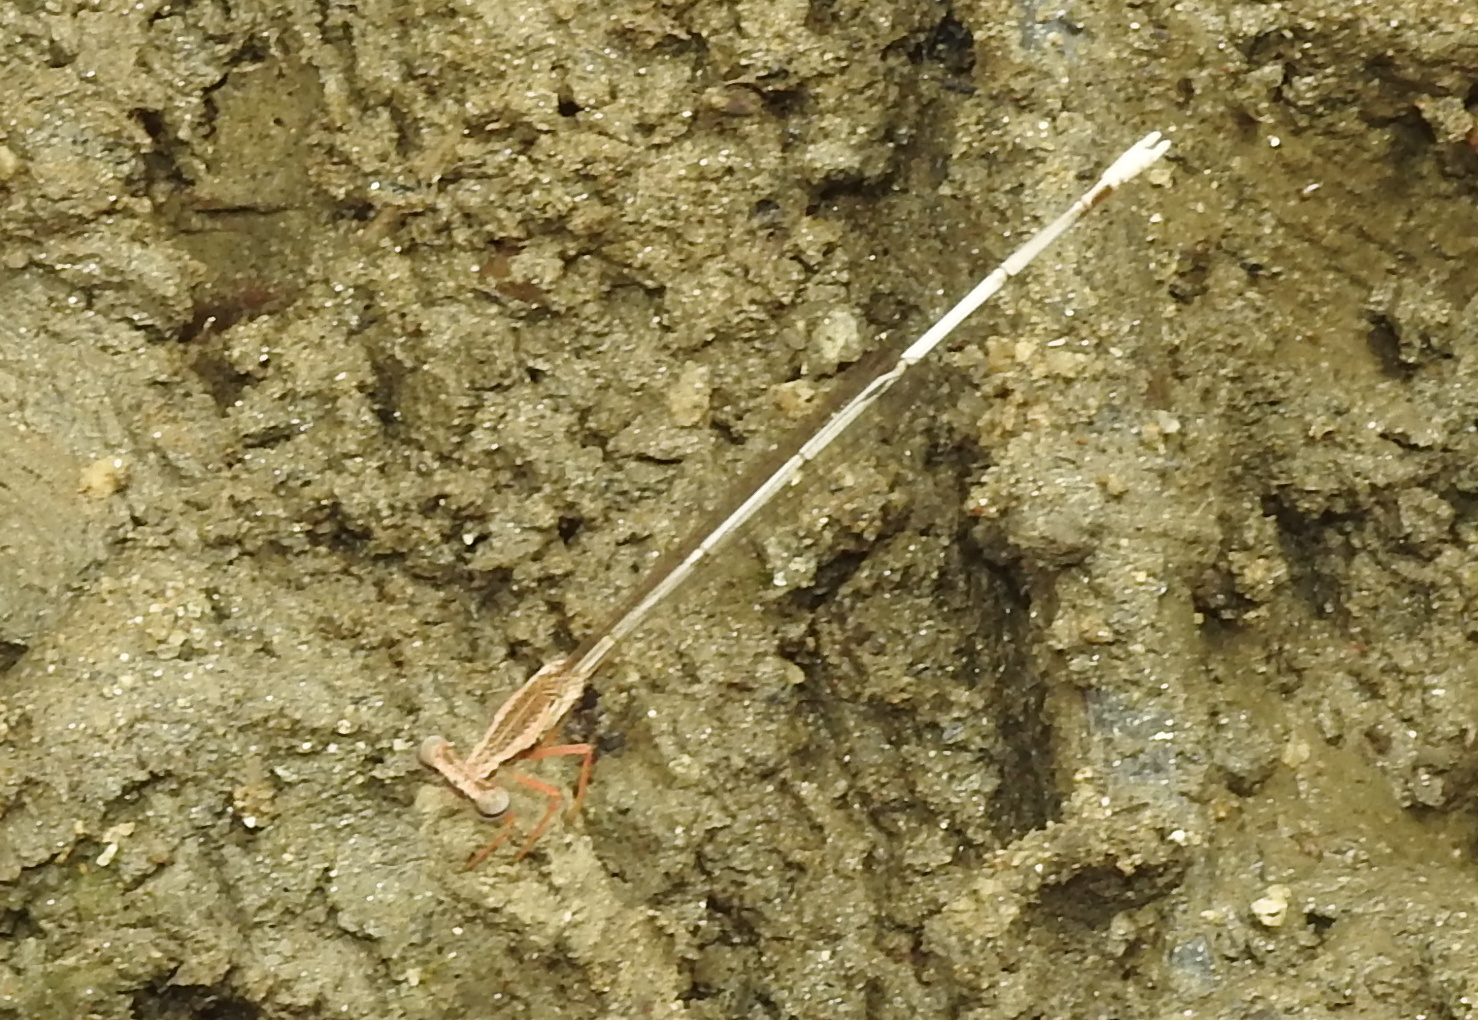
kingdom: Animalia
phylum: Arthropoda
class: Insecta
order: Odonata
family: Platycnemididae
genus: Copera
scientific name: Copera marginipes
